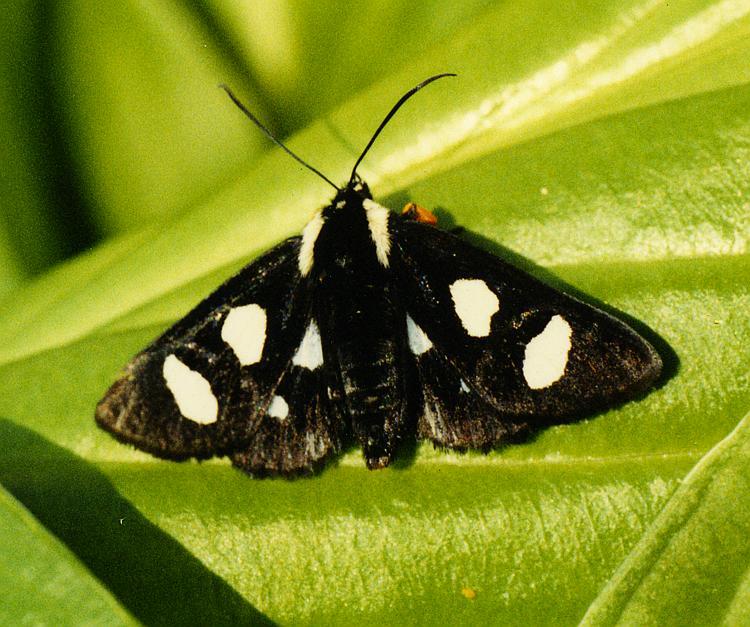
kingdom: Animalia
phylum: Arthropoda
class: Insecta
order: Lepidoptera
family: Noctuidae
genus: Alypia
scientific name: Alypia octomaculata
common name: Eight-spotted forester
